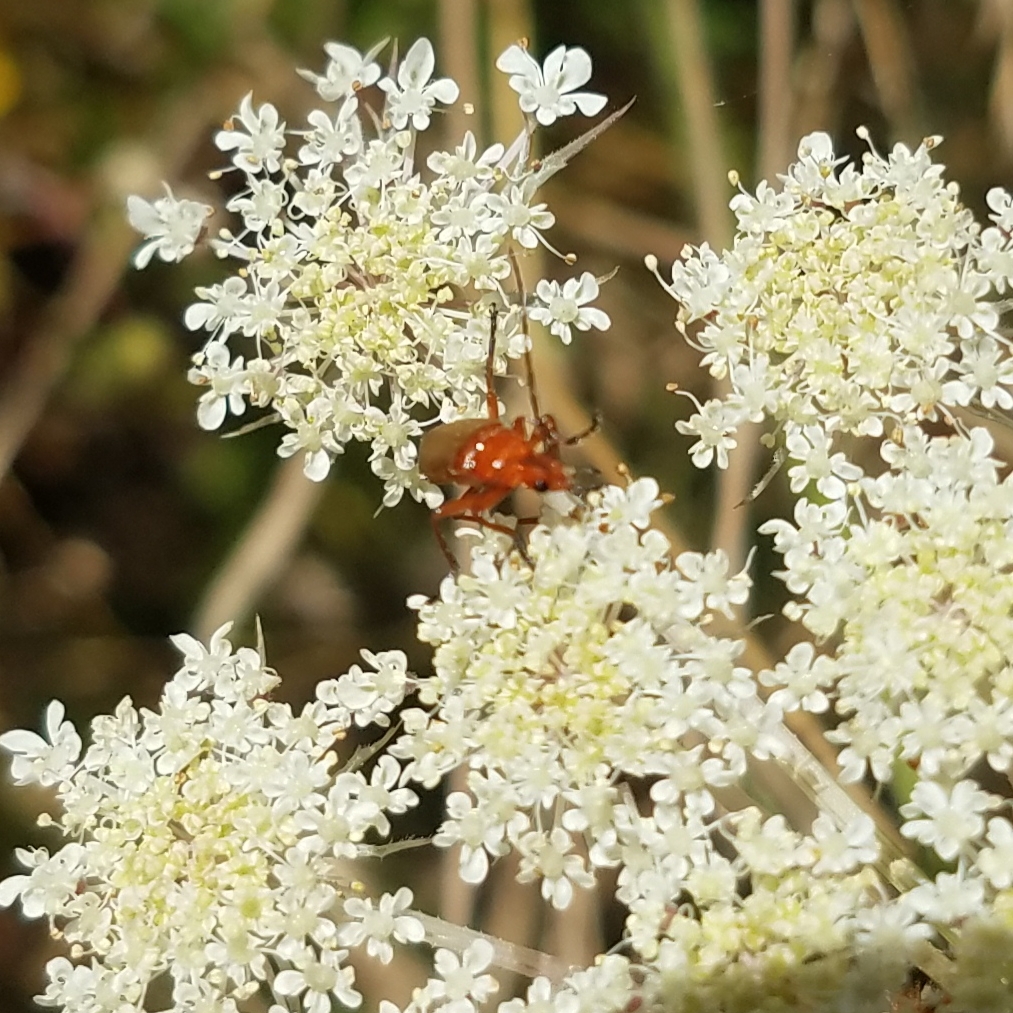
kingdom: Animalia
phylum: Arthropoda
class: Insecta
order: Coleoptera
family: Cantharidae
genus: Rhagonycha
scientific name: Rhagonycha fulva
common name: Common red soldier beetle
